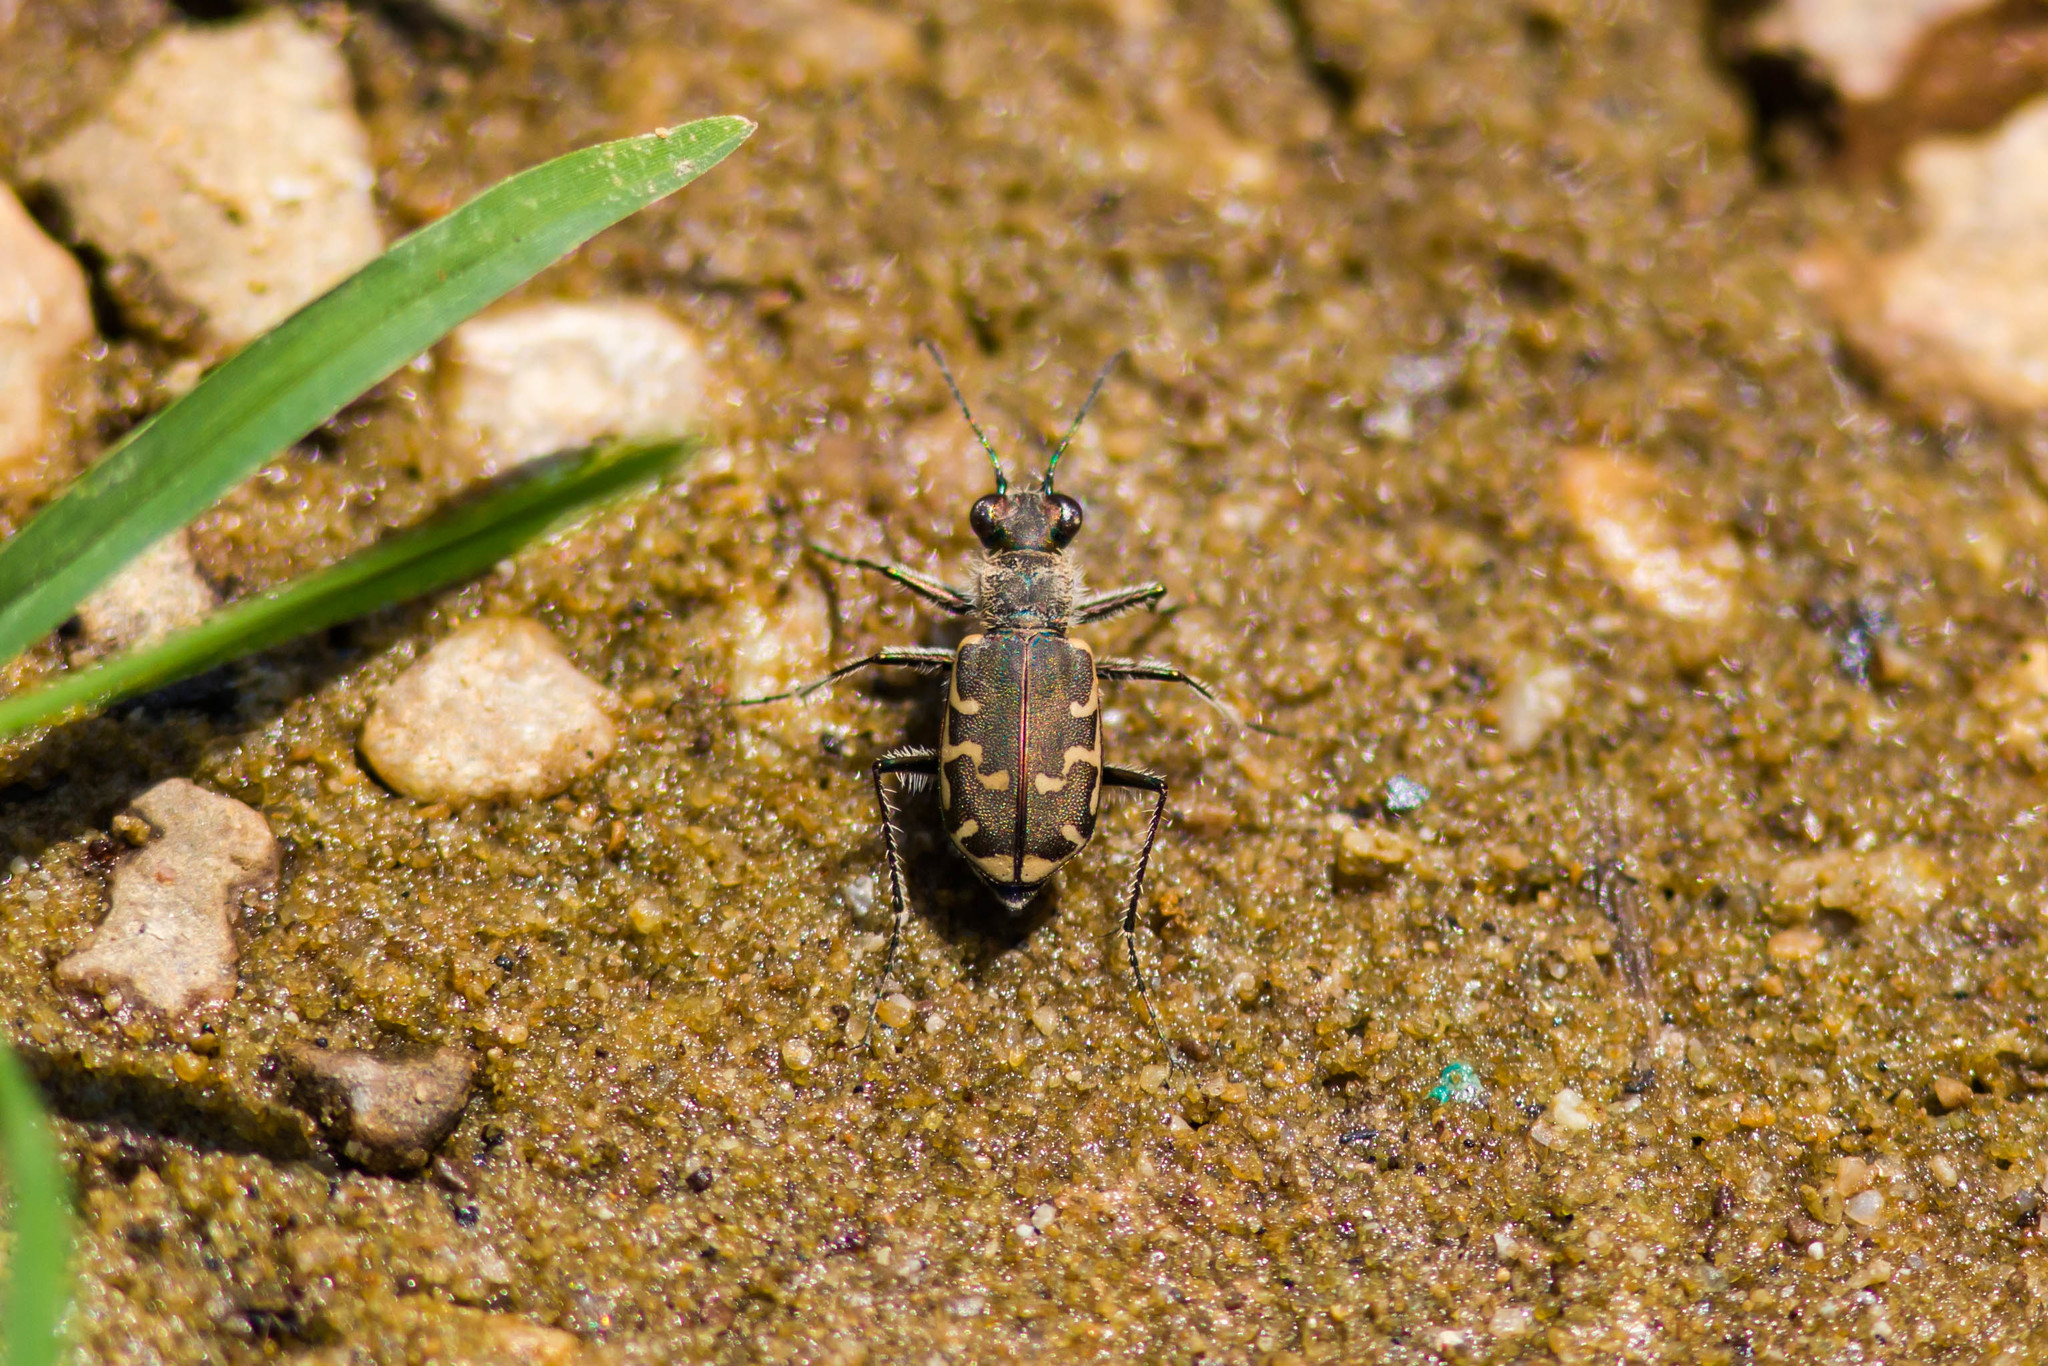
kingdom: Animalia
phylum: Arthropoda
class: Insecta
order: Coleoptera
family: Carabidae
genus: Cicindela
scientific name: Cicindela repanda
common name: Bronzed tiger beetle
